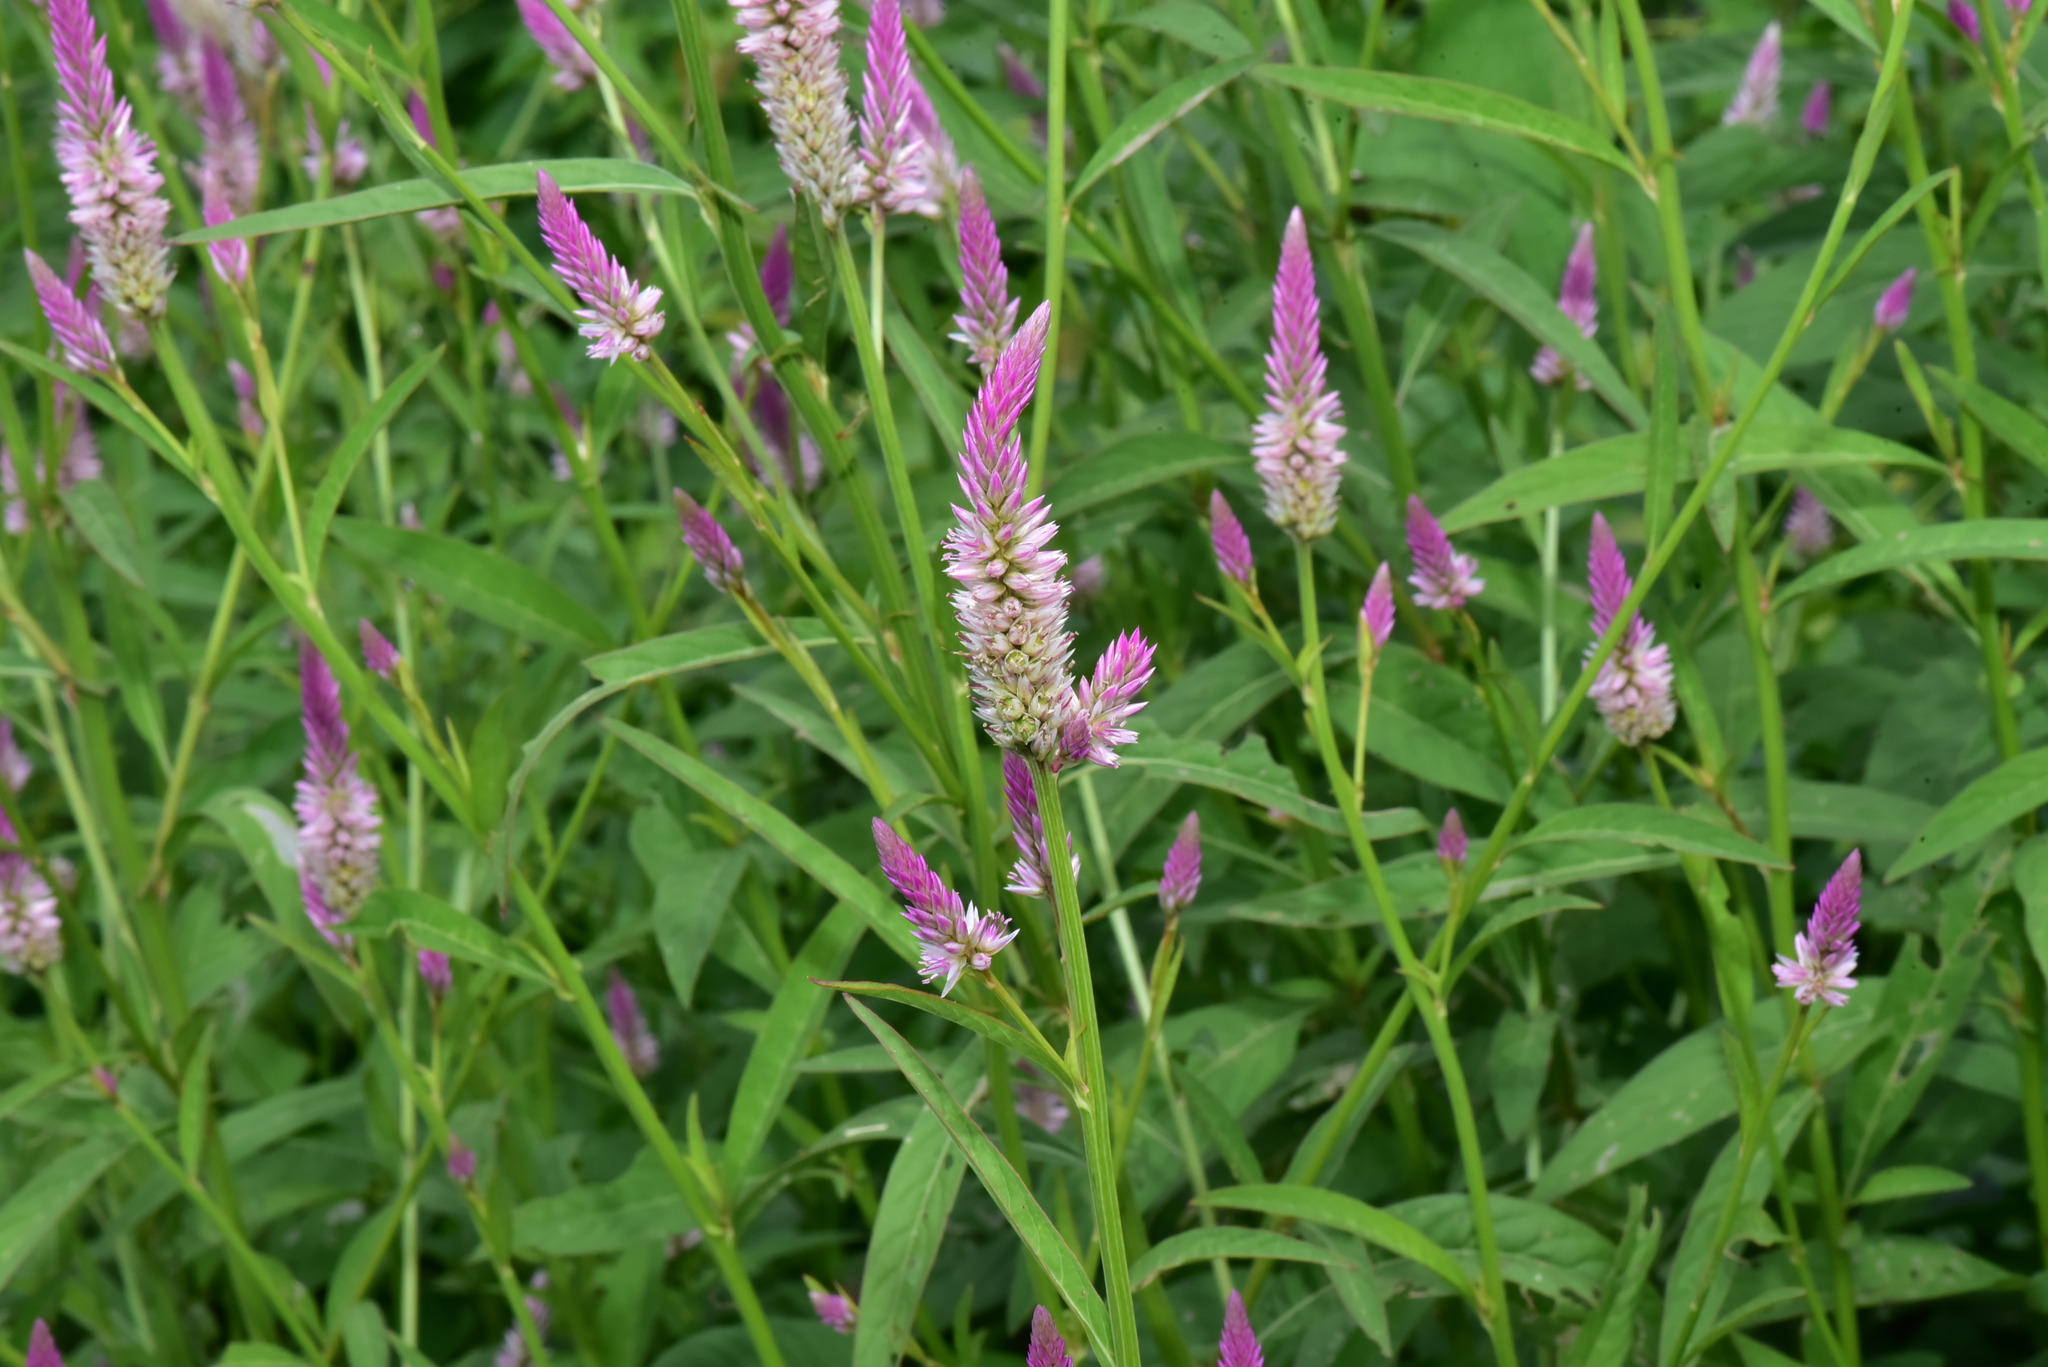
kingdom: Plantae
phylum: Tracheophyta
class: Magnoliopsida
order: Caryophyllales
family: Amaranthaceae
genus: Celosia
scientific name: Celosia argentea
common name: Feather cockscomb
